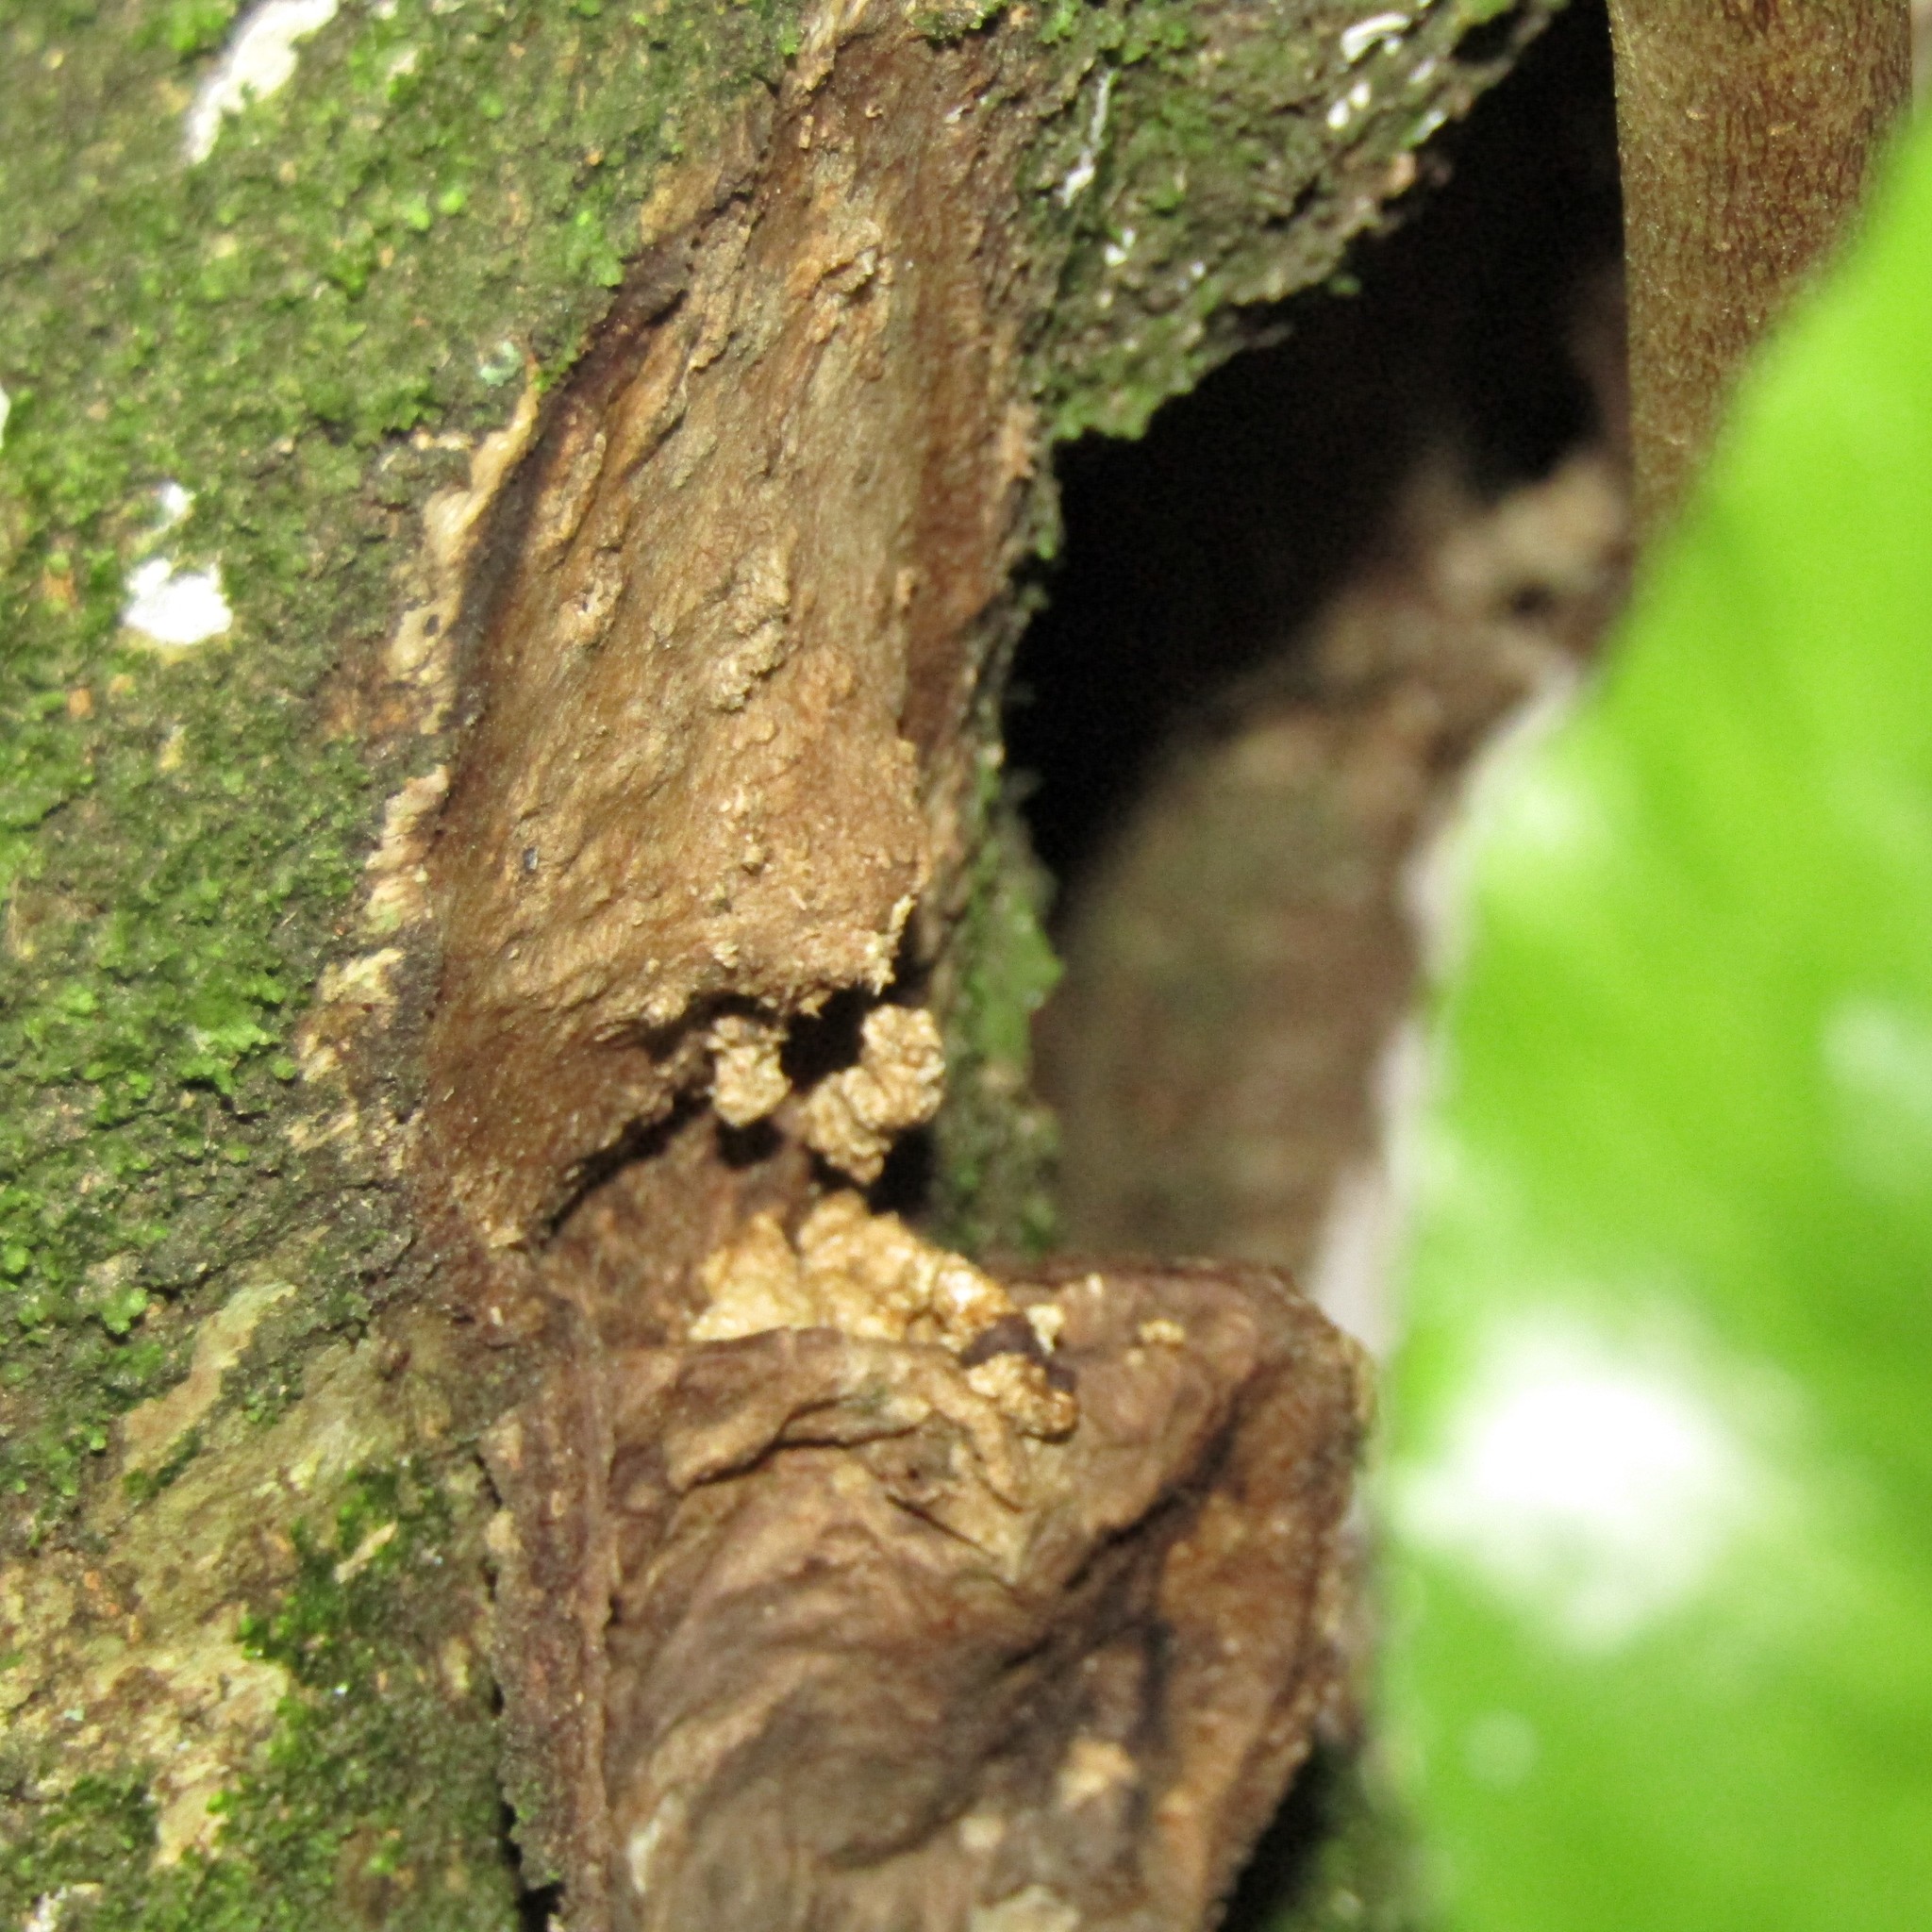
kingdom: Animalia
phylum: Arthropoda
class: Insecta
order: Lepidoptera
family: Hepialidae
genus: Aenetus
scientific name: Aenetus virescens
